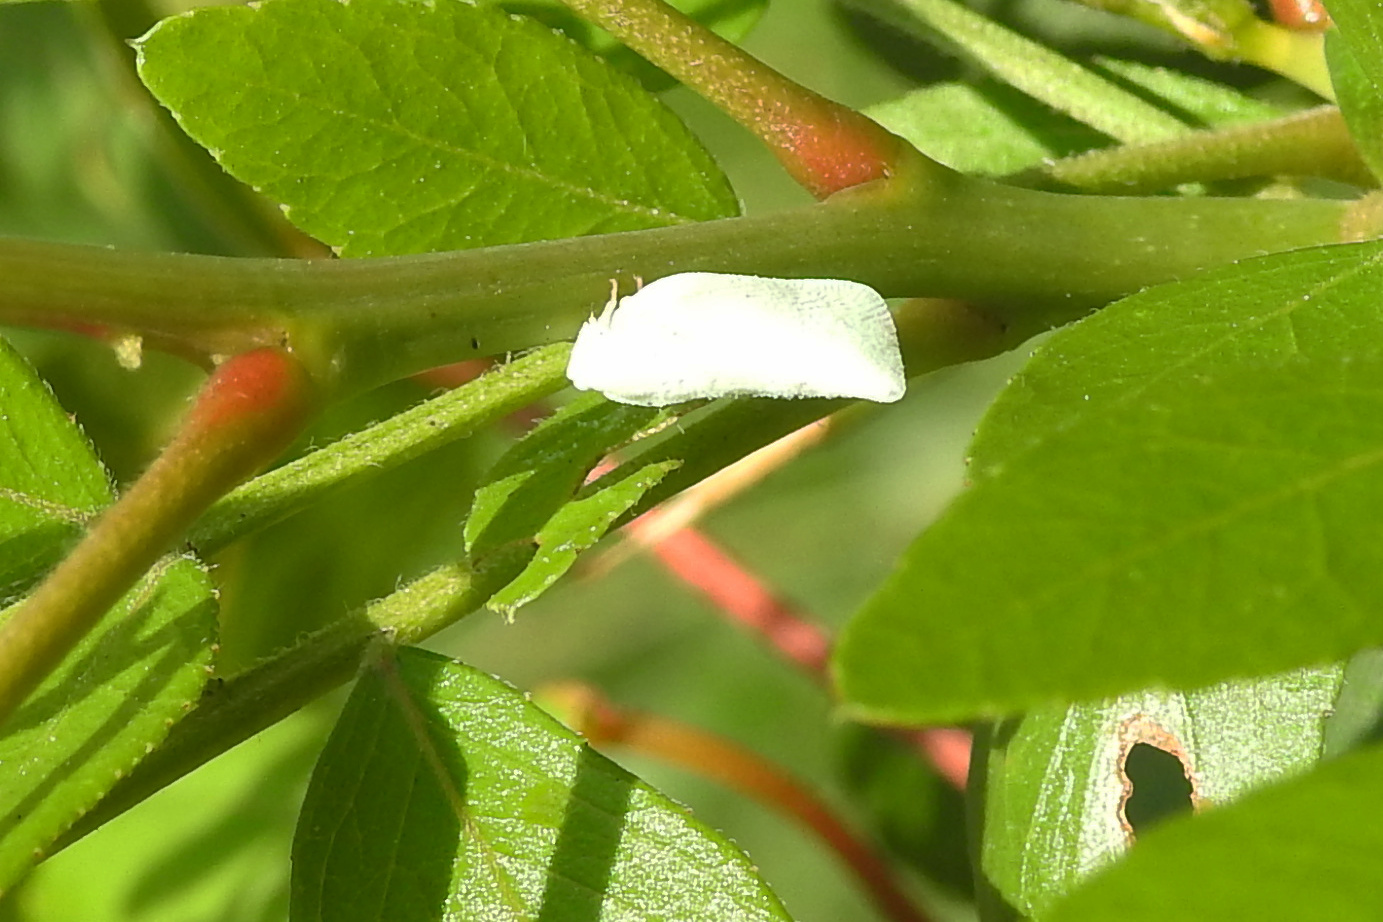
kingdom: Animalia
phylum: Arthropoda
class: Insecta
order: Hemiptera
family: Flatidae
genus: Flatormenis
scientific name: Flatormenis proxima
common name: Northern flatid planthopper
